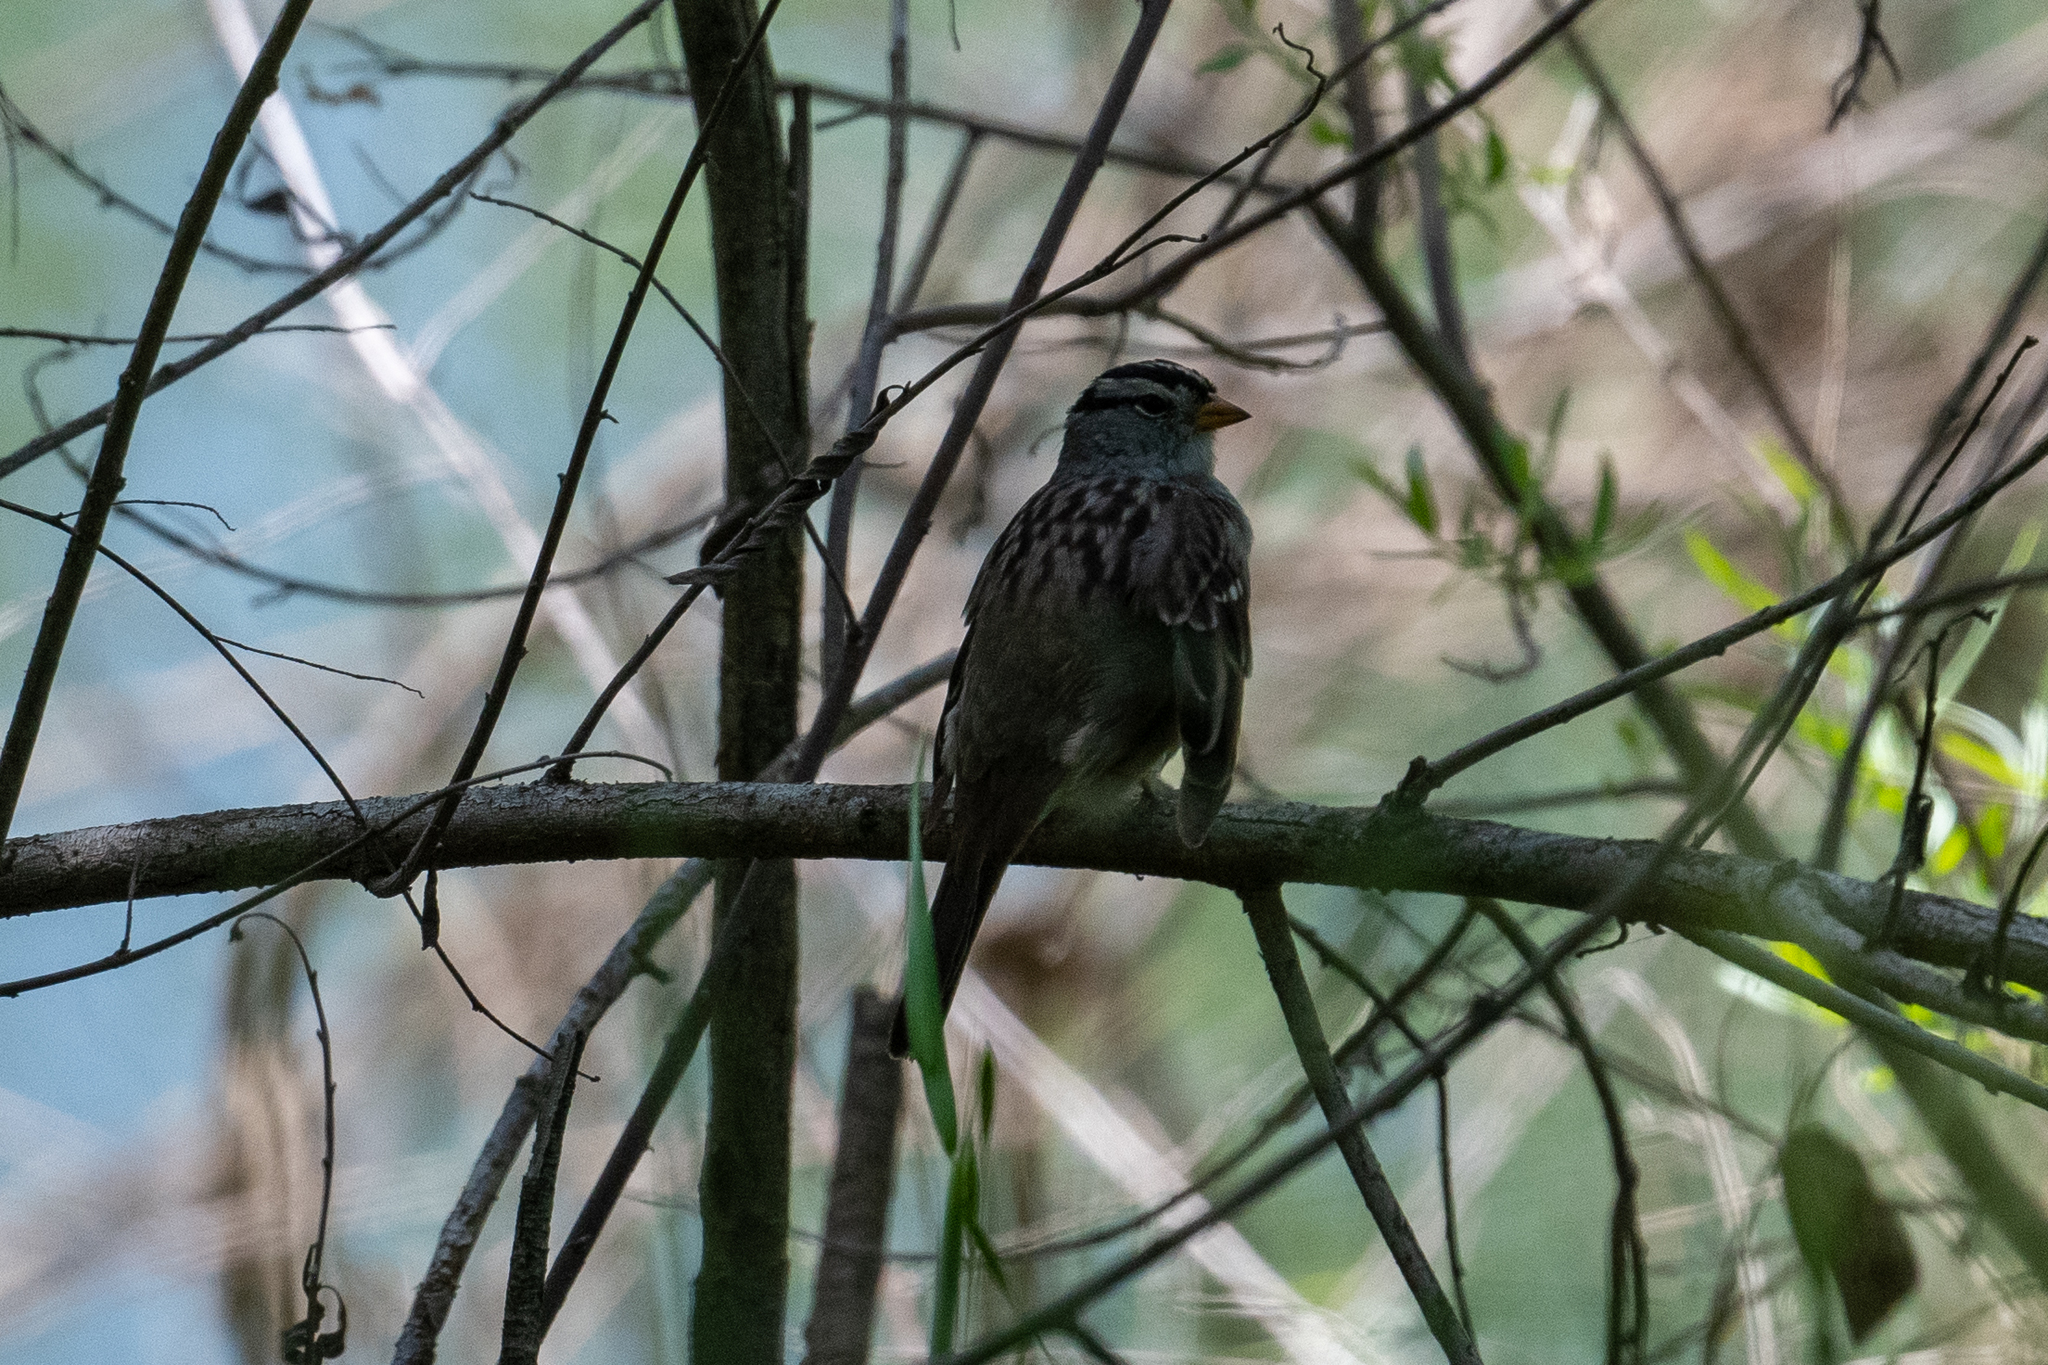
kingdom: Animalia
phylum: Chordata
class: Aves
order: Passeriformes
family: Passerellidae
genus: Zonotrichia
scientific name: Zonotrichia leucophrys
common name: White-crowned sparrow
